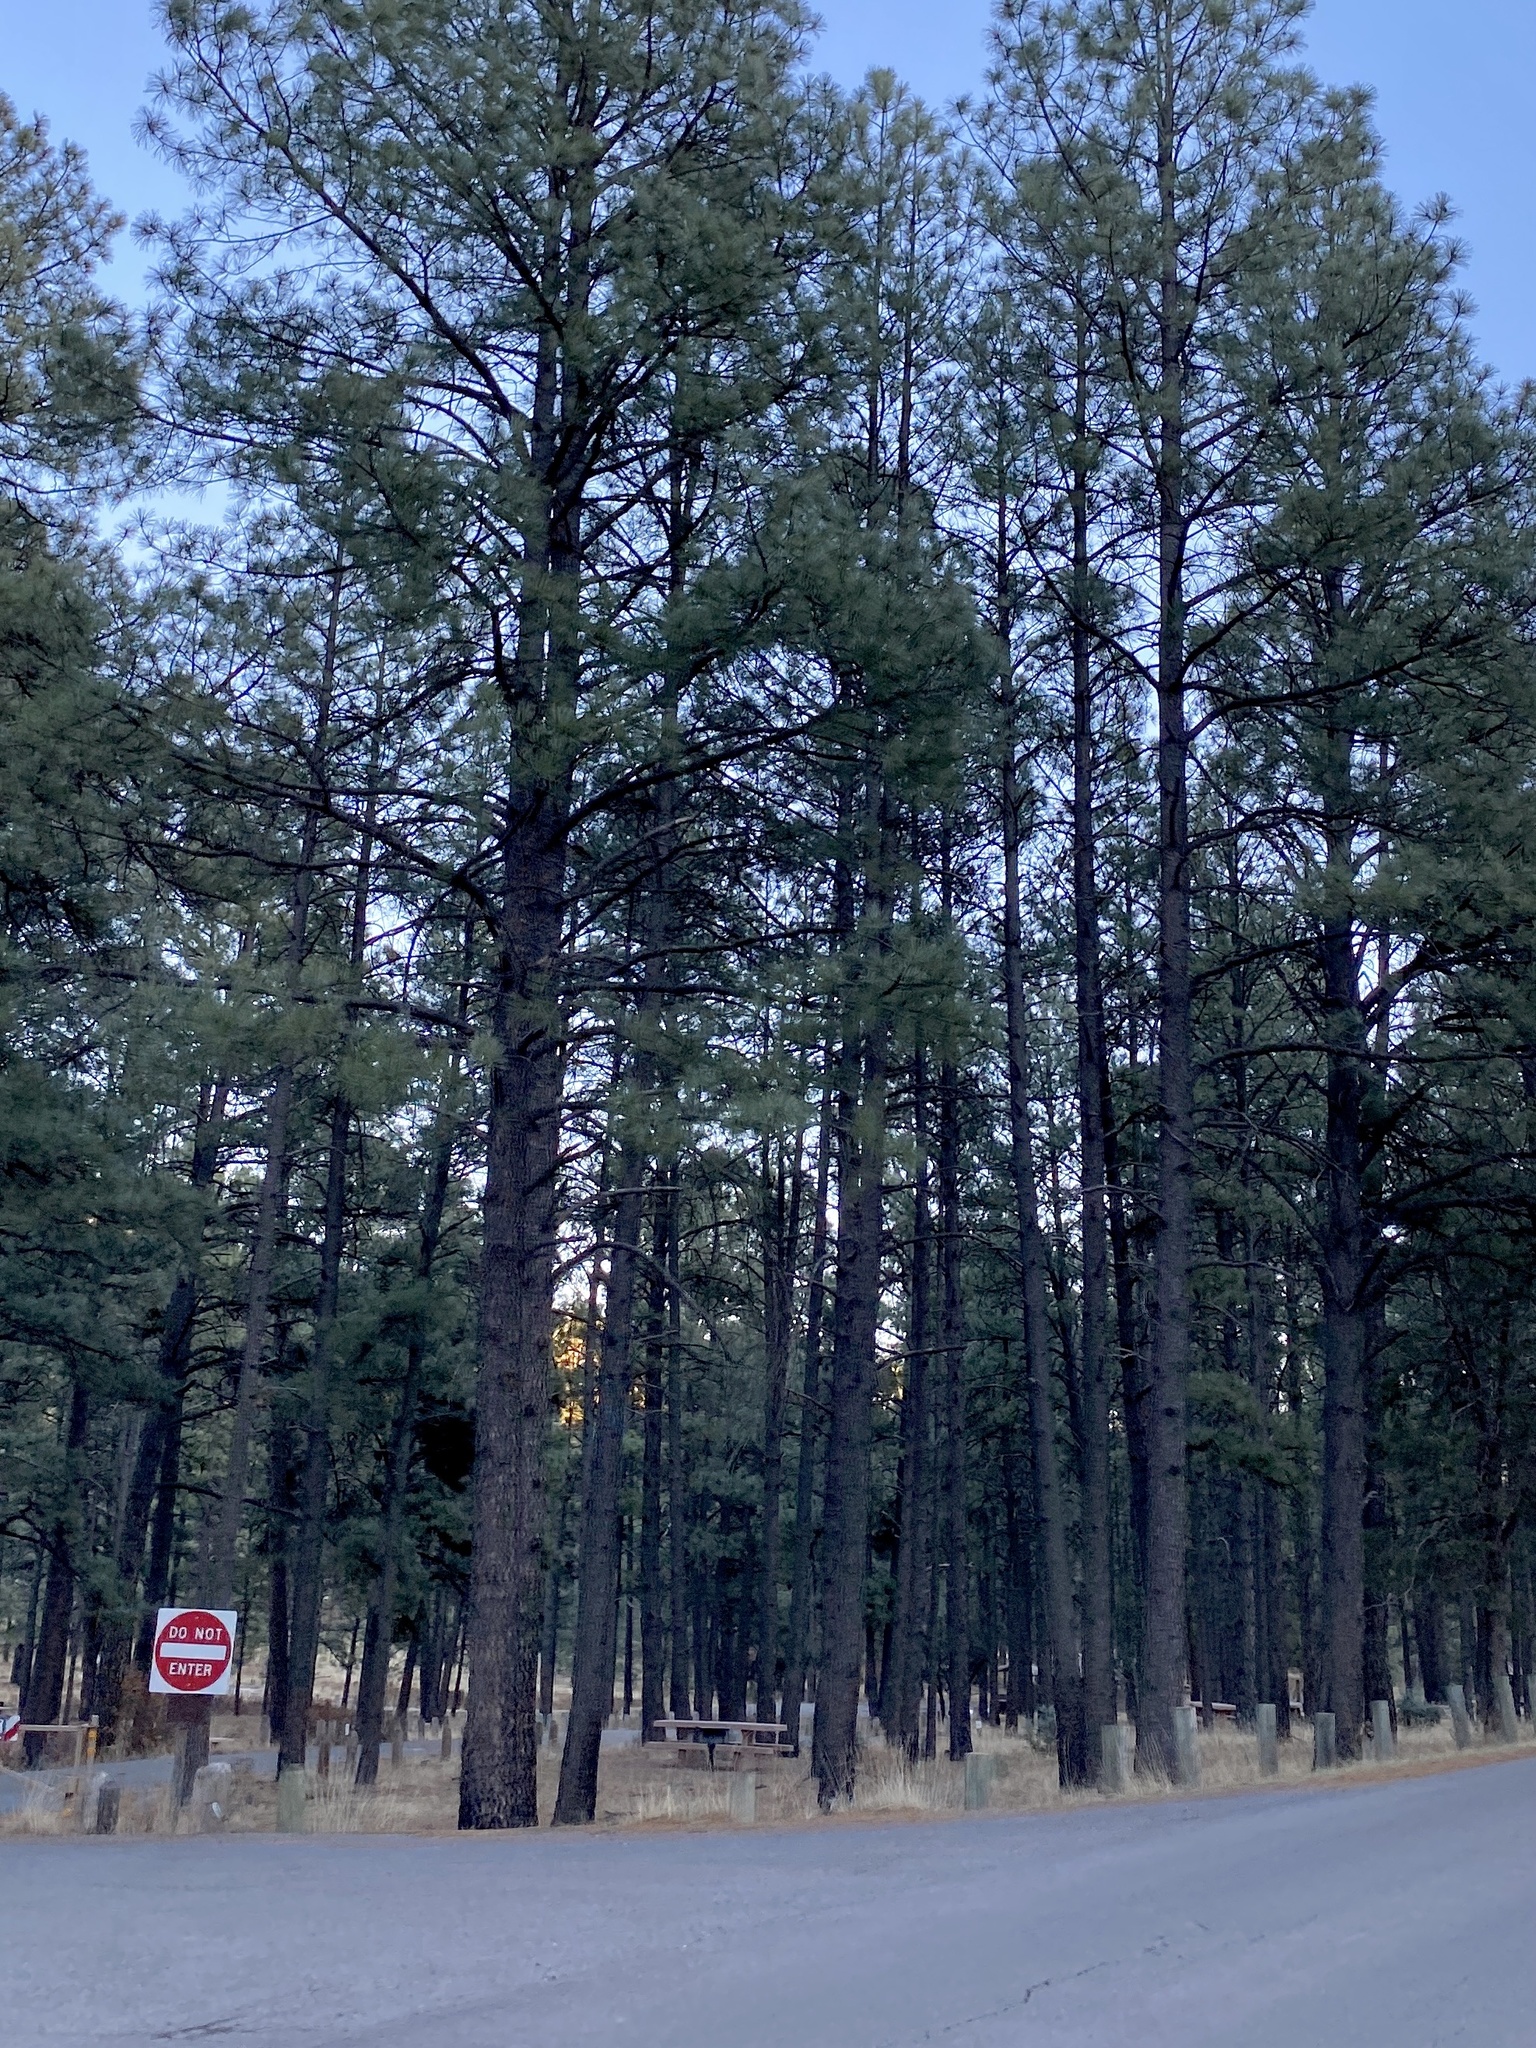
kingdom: Plantae
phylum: Tracheophyta
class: Pinopsida
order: Pinales
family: Pinaceae
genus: Pinus
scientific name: Pinus ponderosa
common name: Western yellow-pine
